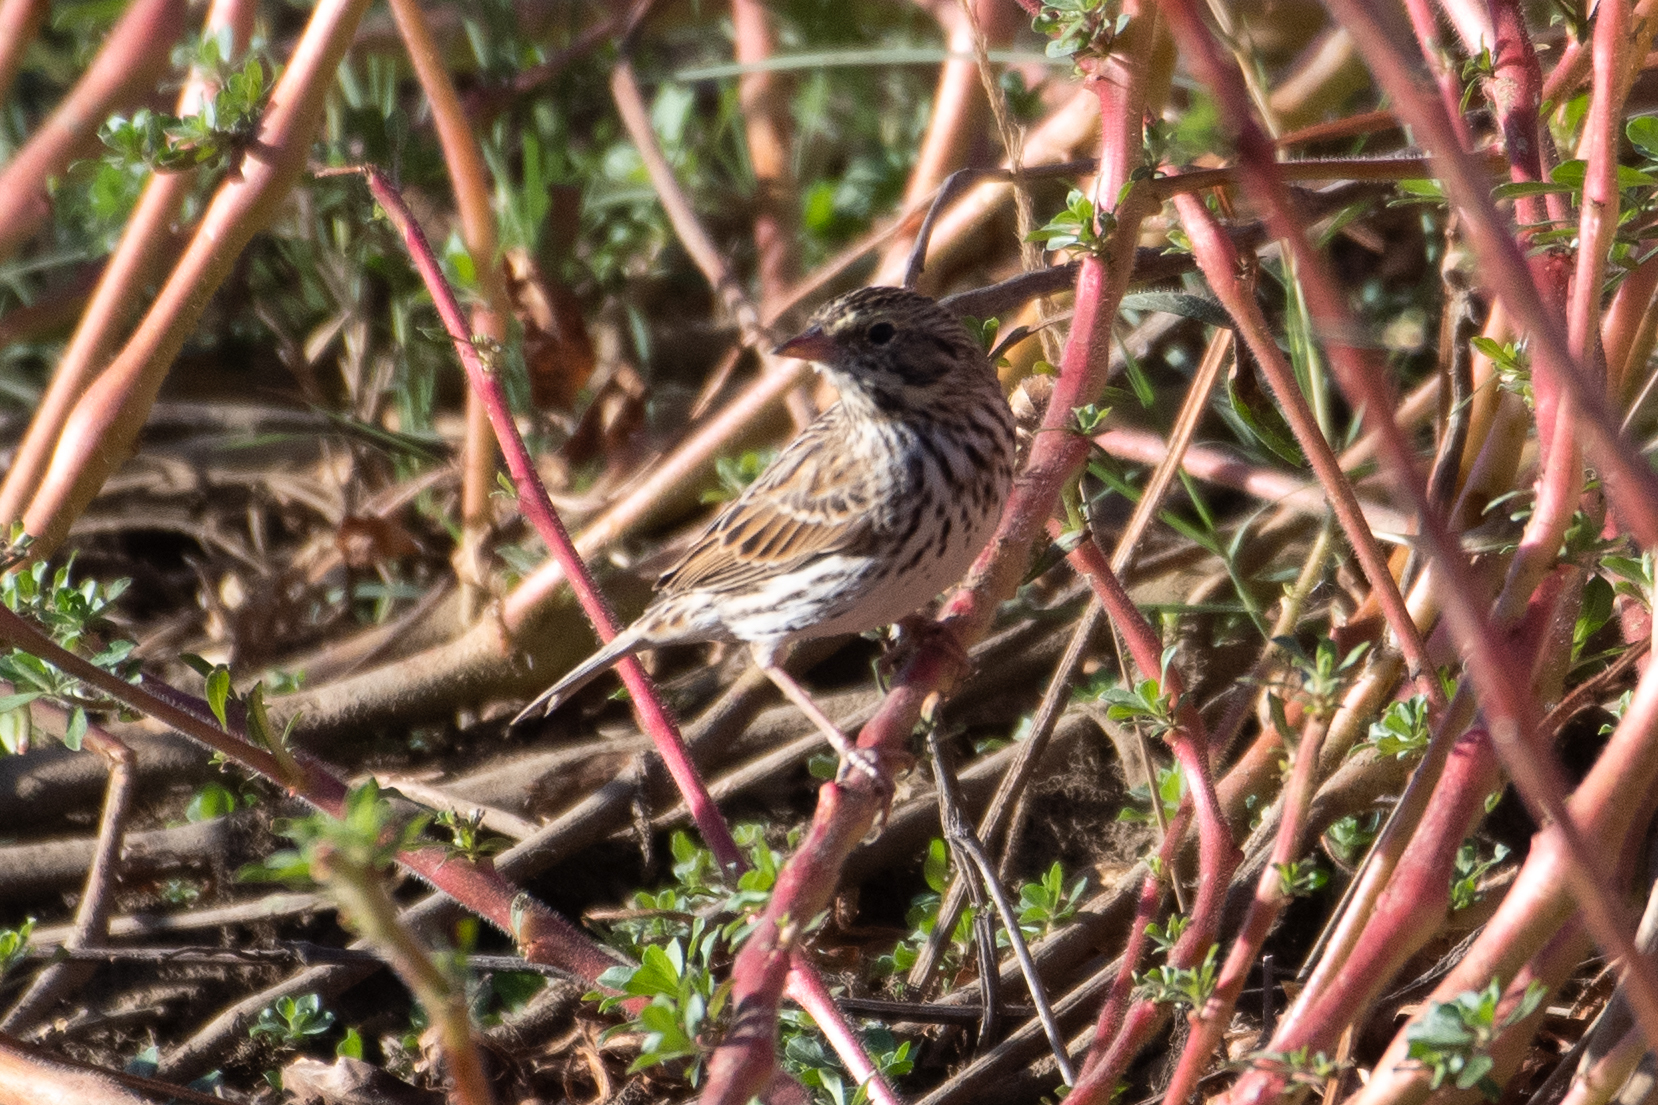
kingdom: Animalia
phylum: Chordata
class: Aves
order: Passeriformes
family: Passerellidae
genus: Passerculus
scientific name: Passerculus sandwichensis
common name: Savannah sparrow
